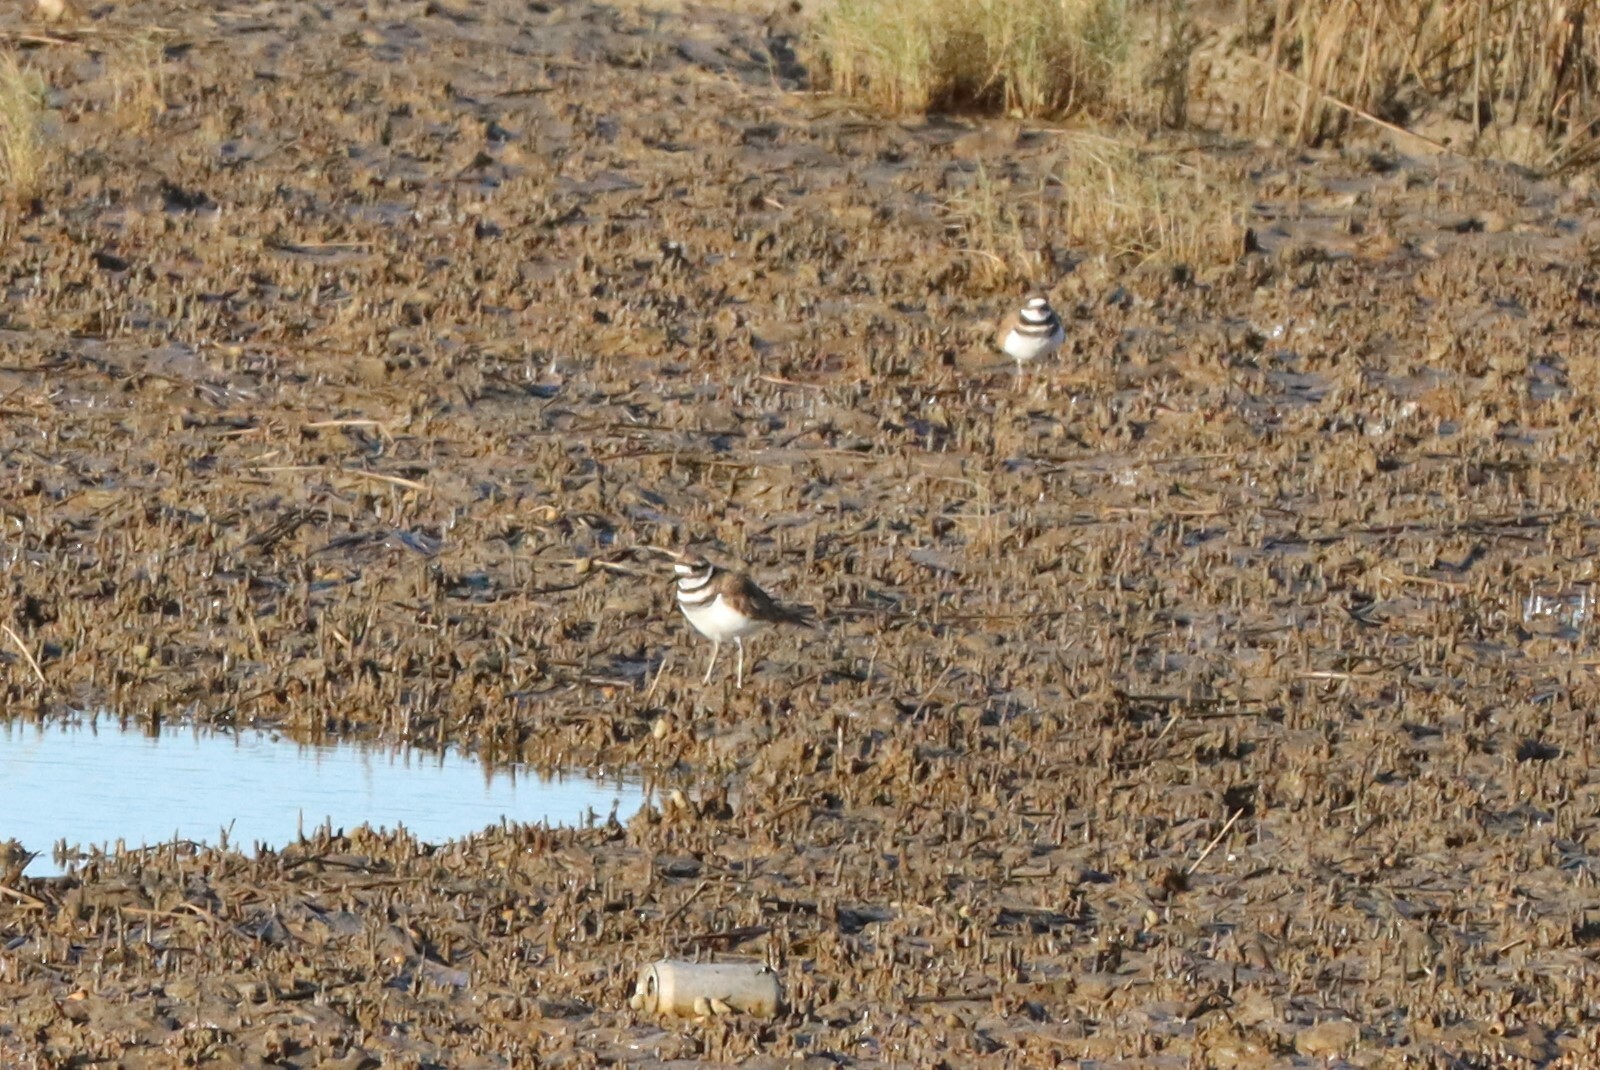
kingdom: Animalia
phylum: Chordata
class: Aves
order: Charadriiformes
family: Charadriidae
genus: Charadrius
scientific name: Charadrius vociferus
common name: Killdeer
